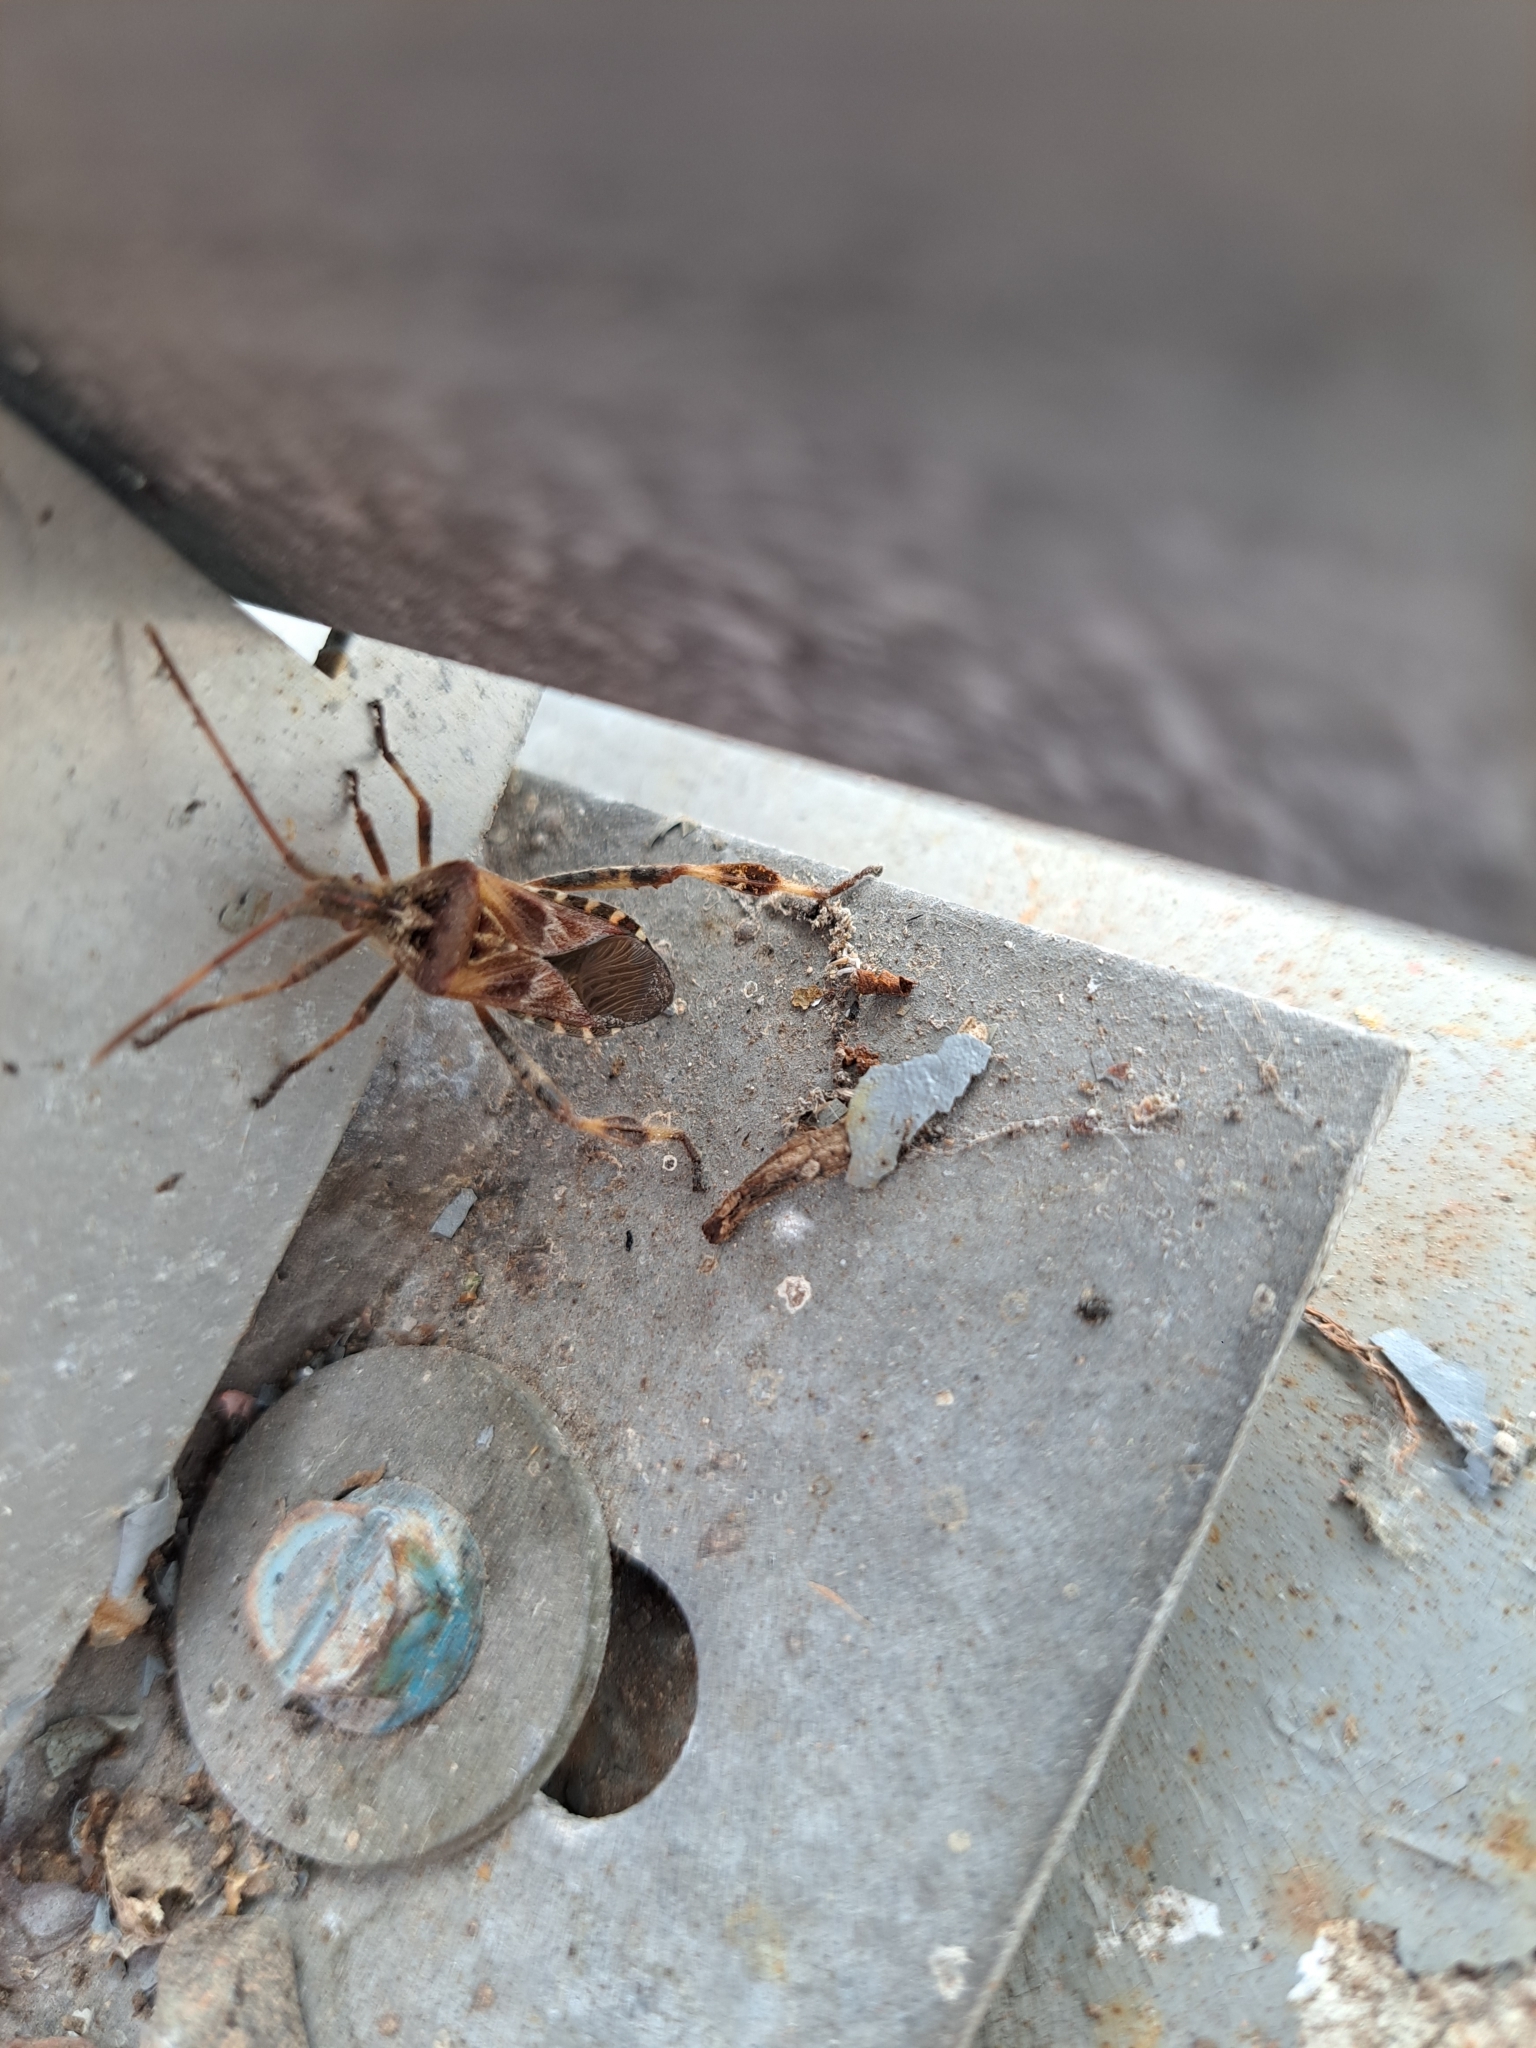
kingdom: Animalia
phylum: Arthropoda
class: Insecta
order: Hemiptera
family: Coreidae
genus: Leptoglossus
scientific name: Leptoglossus occidentalis
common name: Western conifer-seed bug
